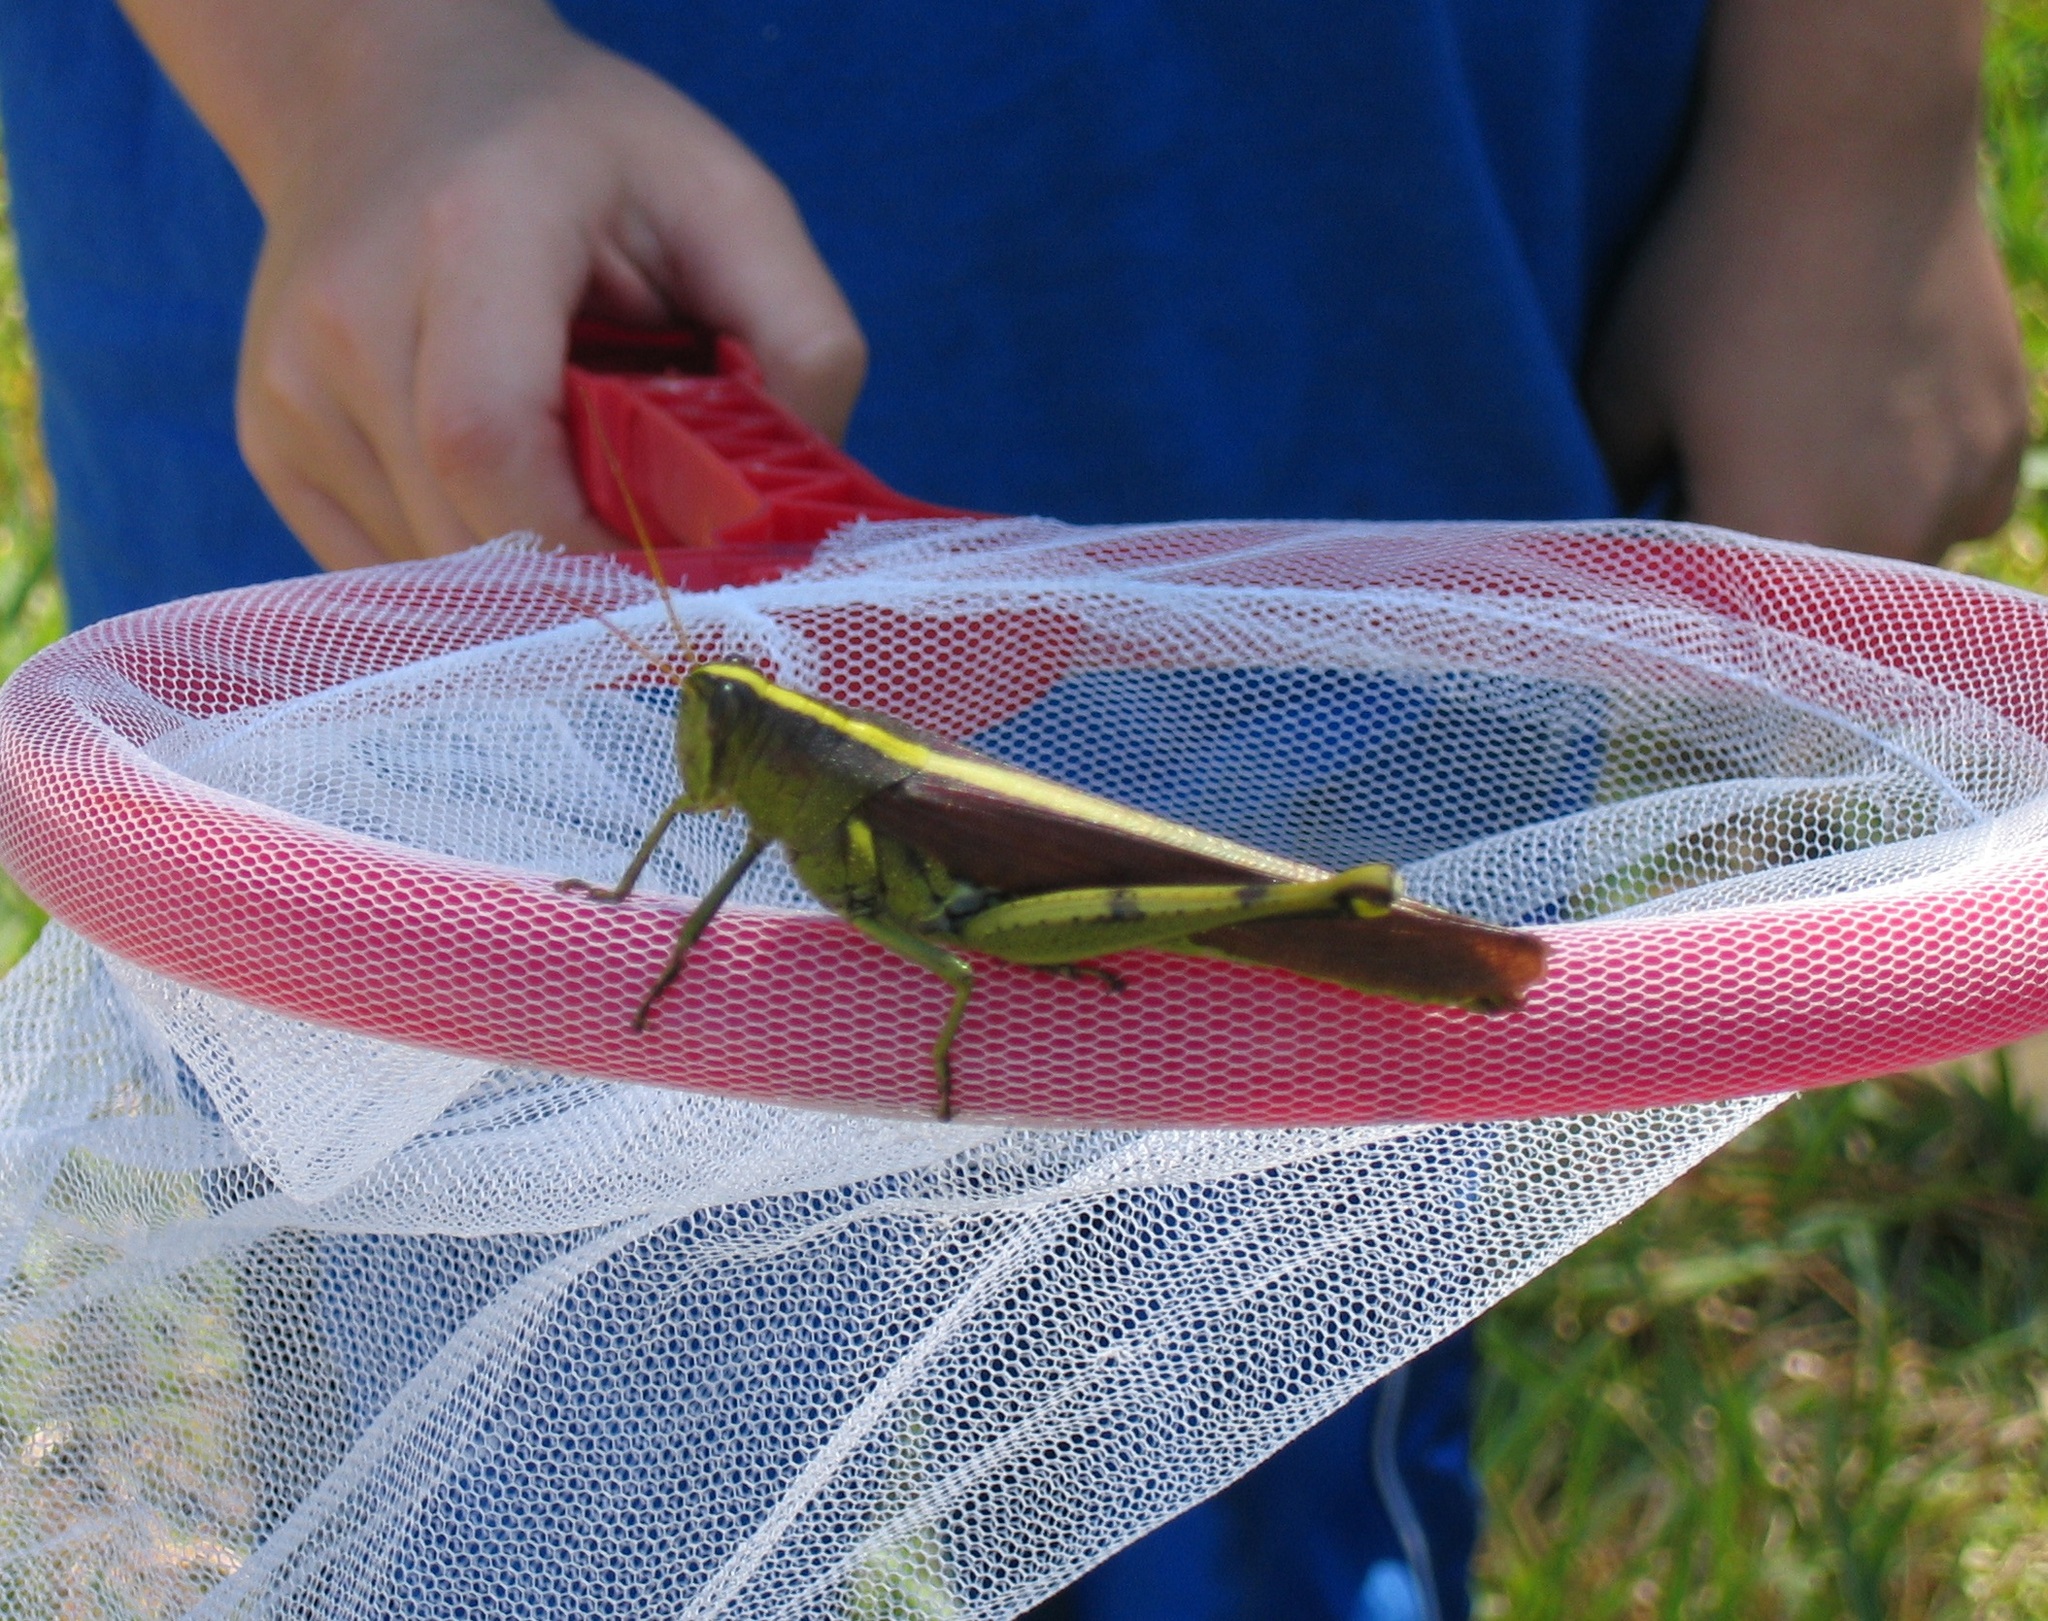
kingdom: Animalia
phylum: Arthropoda
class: Insecta
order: Orthoptera
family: Acrididae
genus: Schistocerca
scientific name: Schistocerca obscura
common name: Obscure bird grasshopper
